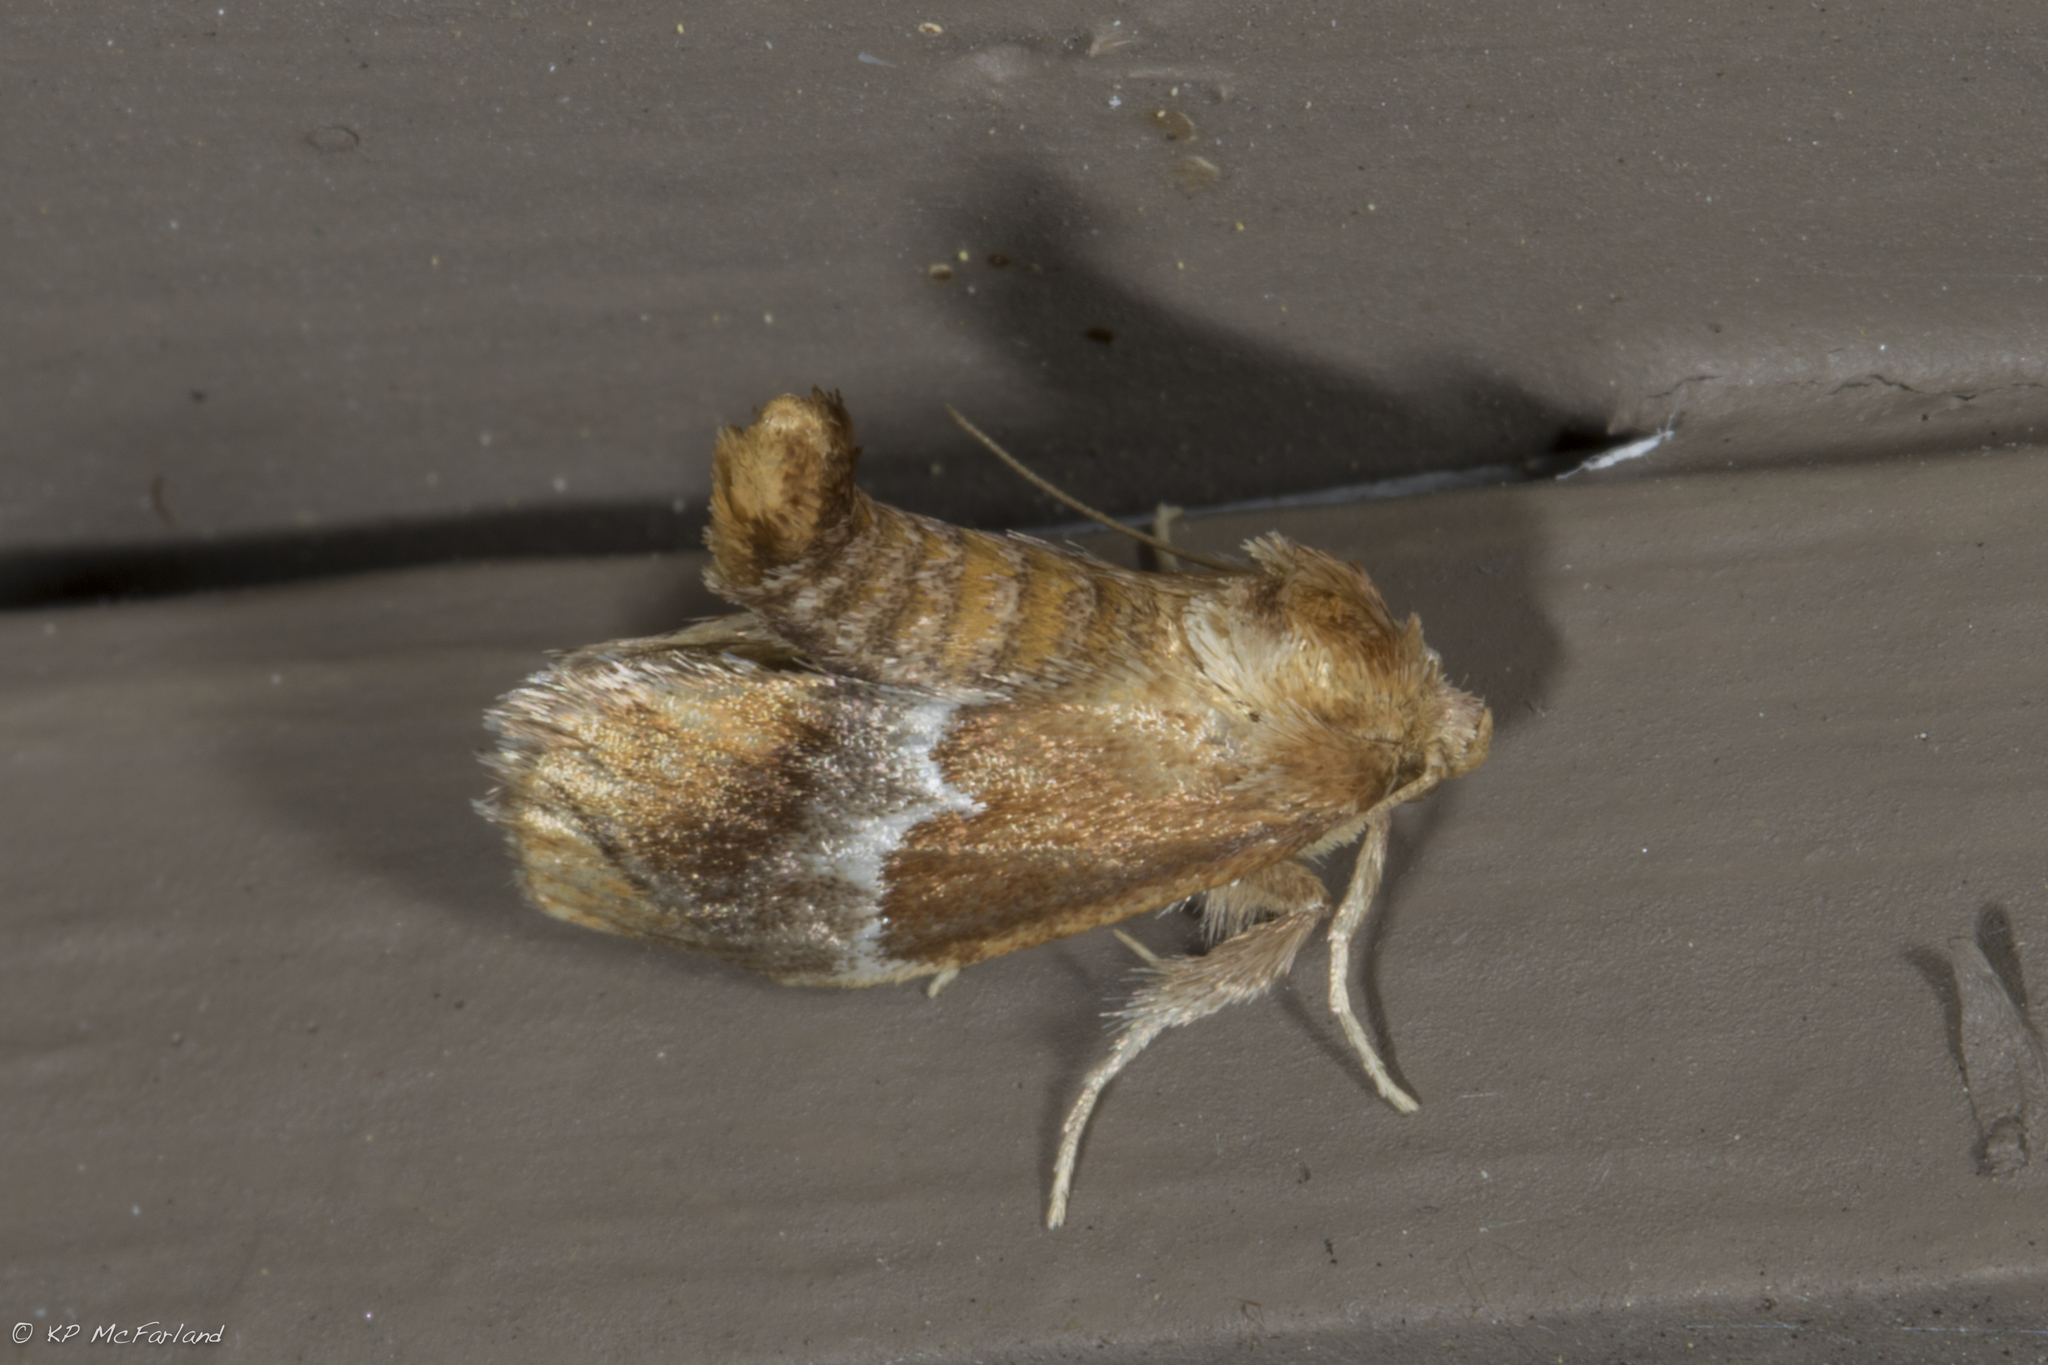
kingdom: Animalia
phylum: Arthropoda
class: Insecta
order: Lepidoptera
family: Limacodidae
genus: Lithacodes
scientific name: Lithacodes fasciola
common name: Yellow-shouldered slug moth
